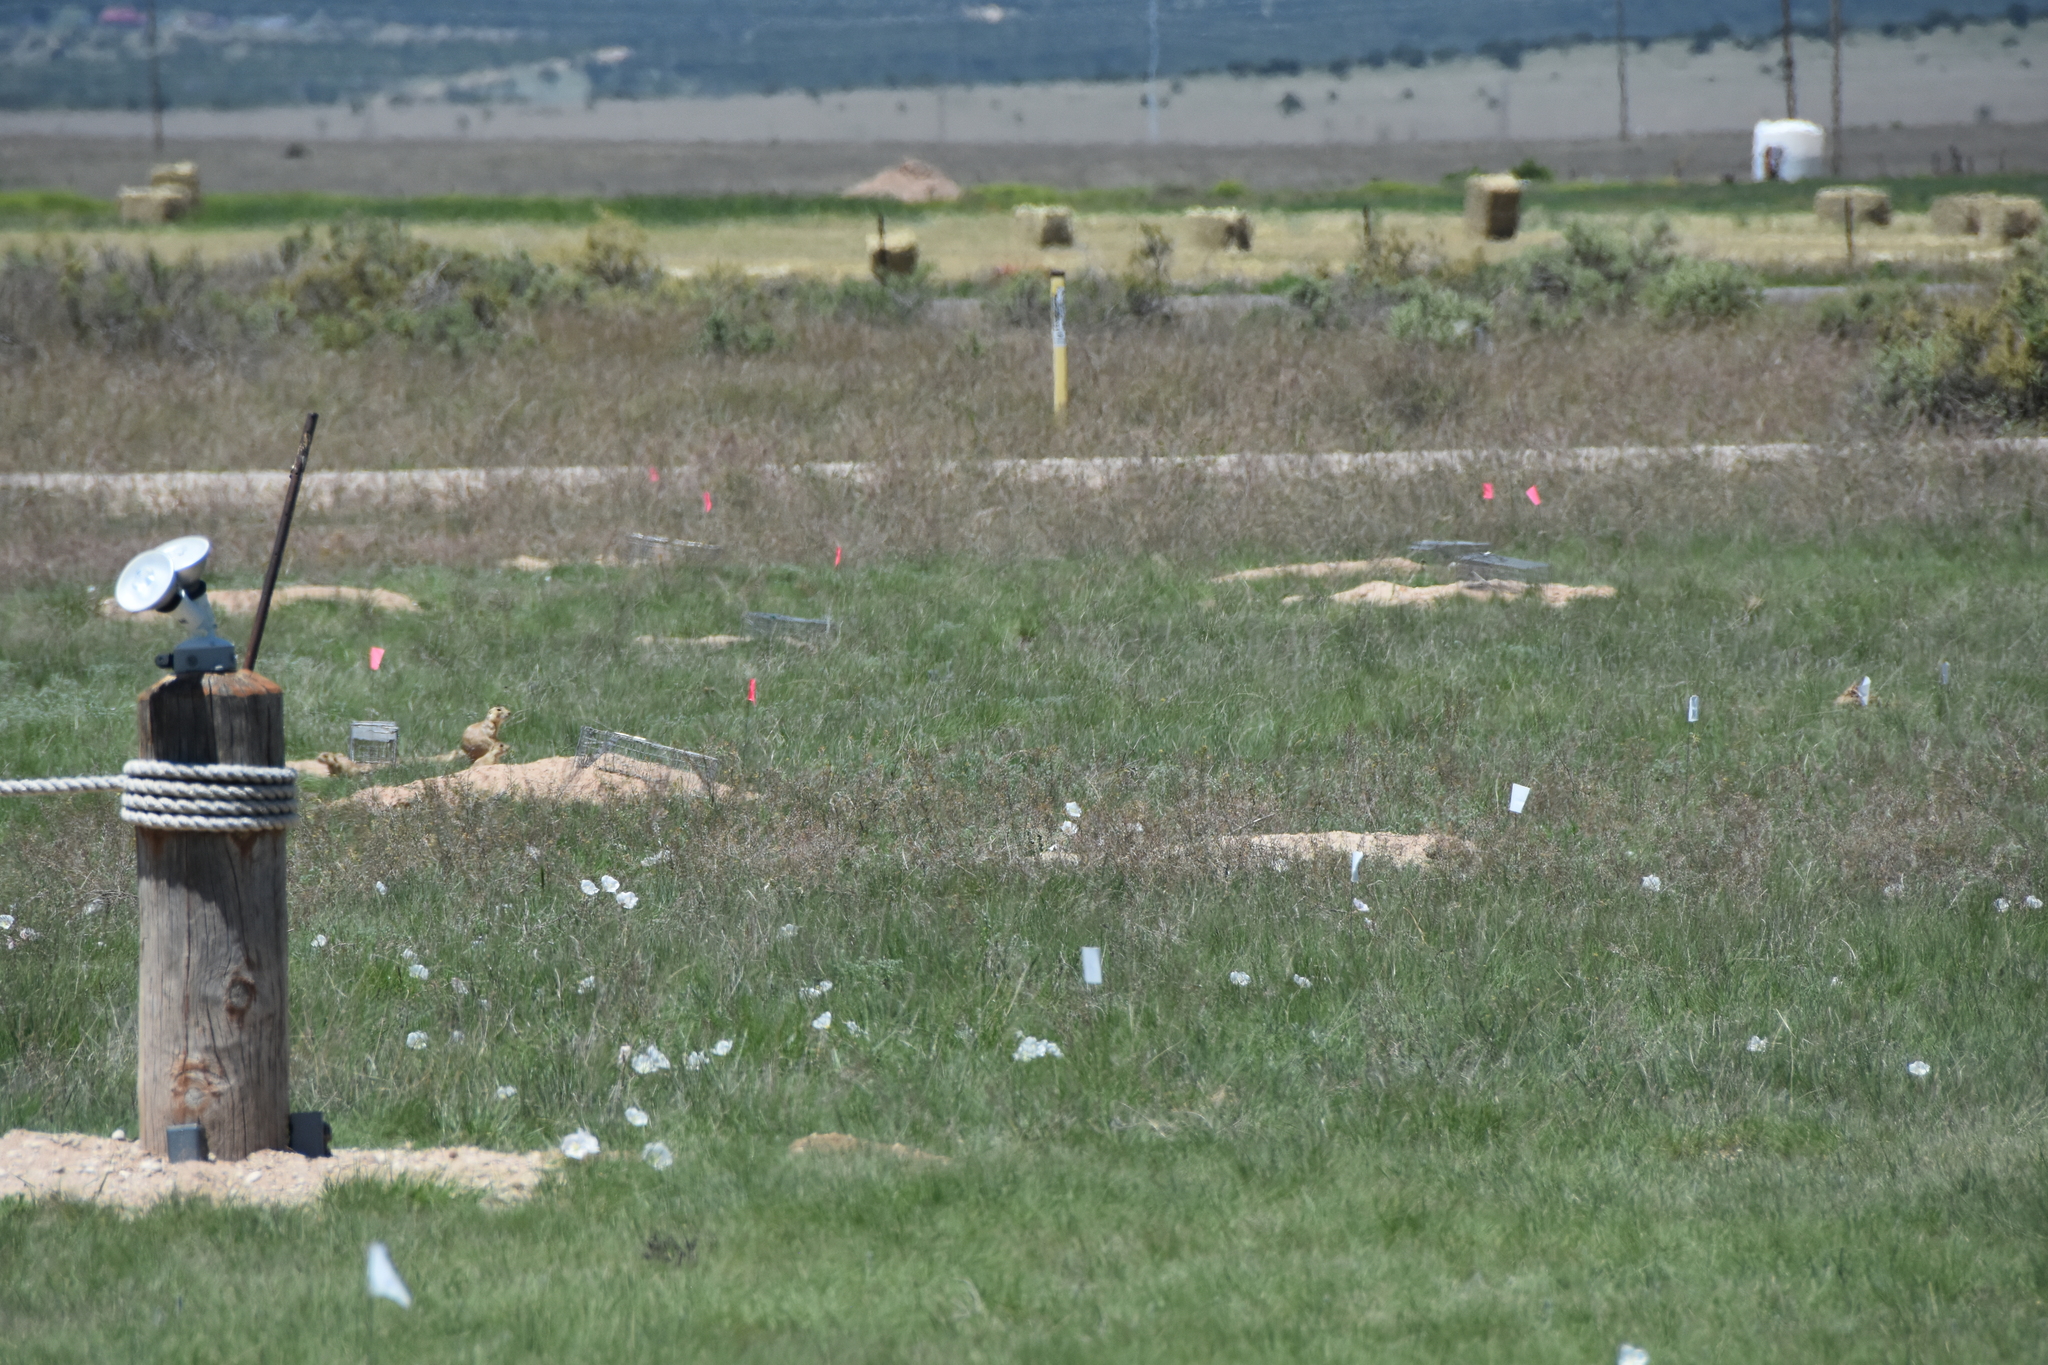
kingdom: Animalia
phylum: Chordata
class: Mammalia
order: Rodentia
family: Sciuridae
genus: Cynomys
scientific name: Cynomys gunnisoni
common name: Gunnison's prairie dog
